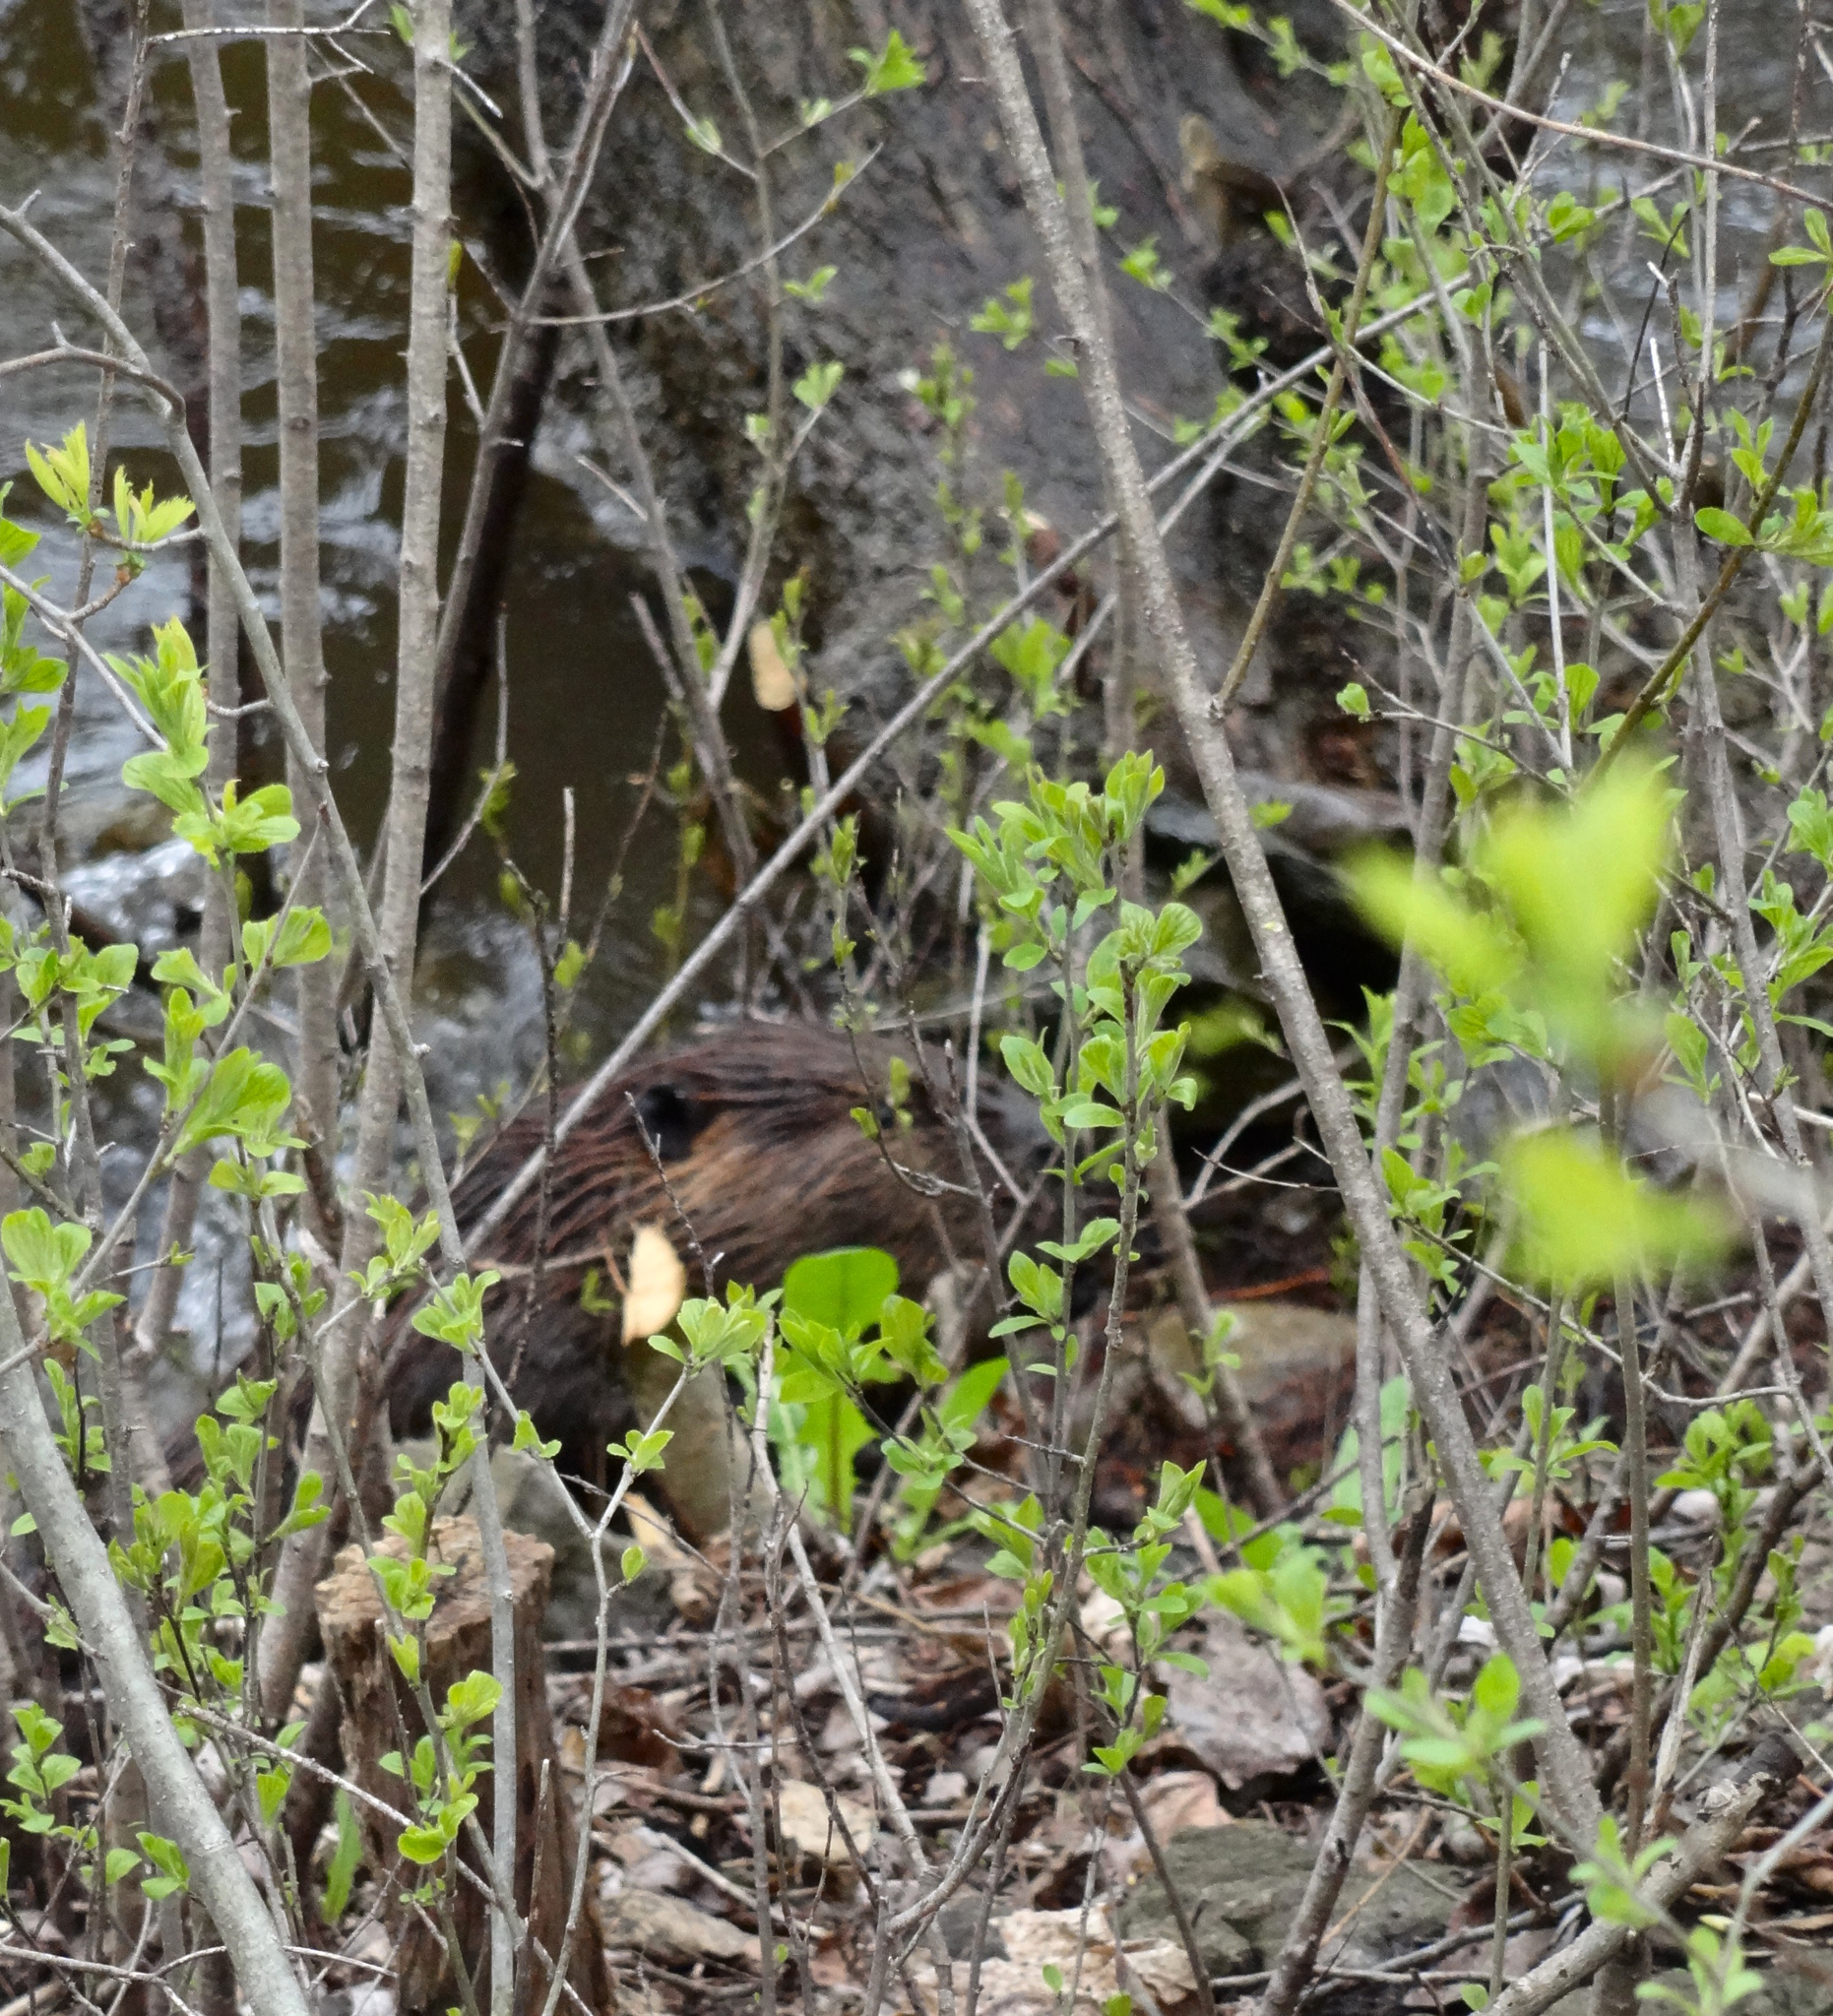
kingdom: Animalia
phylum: Chordata
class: Mammalia
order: Rodentia
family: Castoridae
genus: Castor
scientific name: Castor canadensis
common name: American beaver
